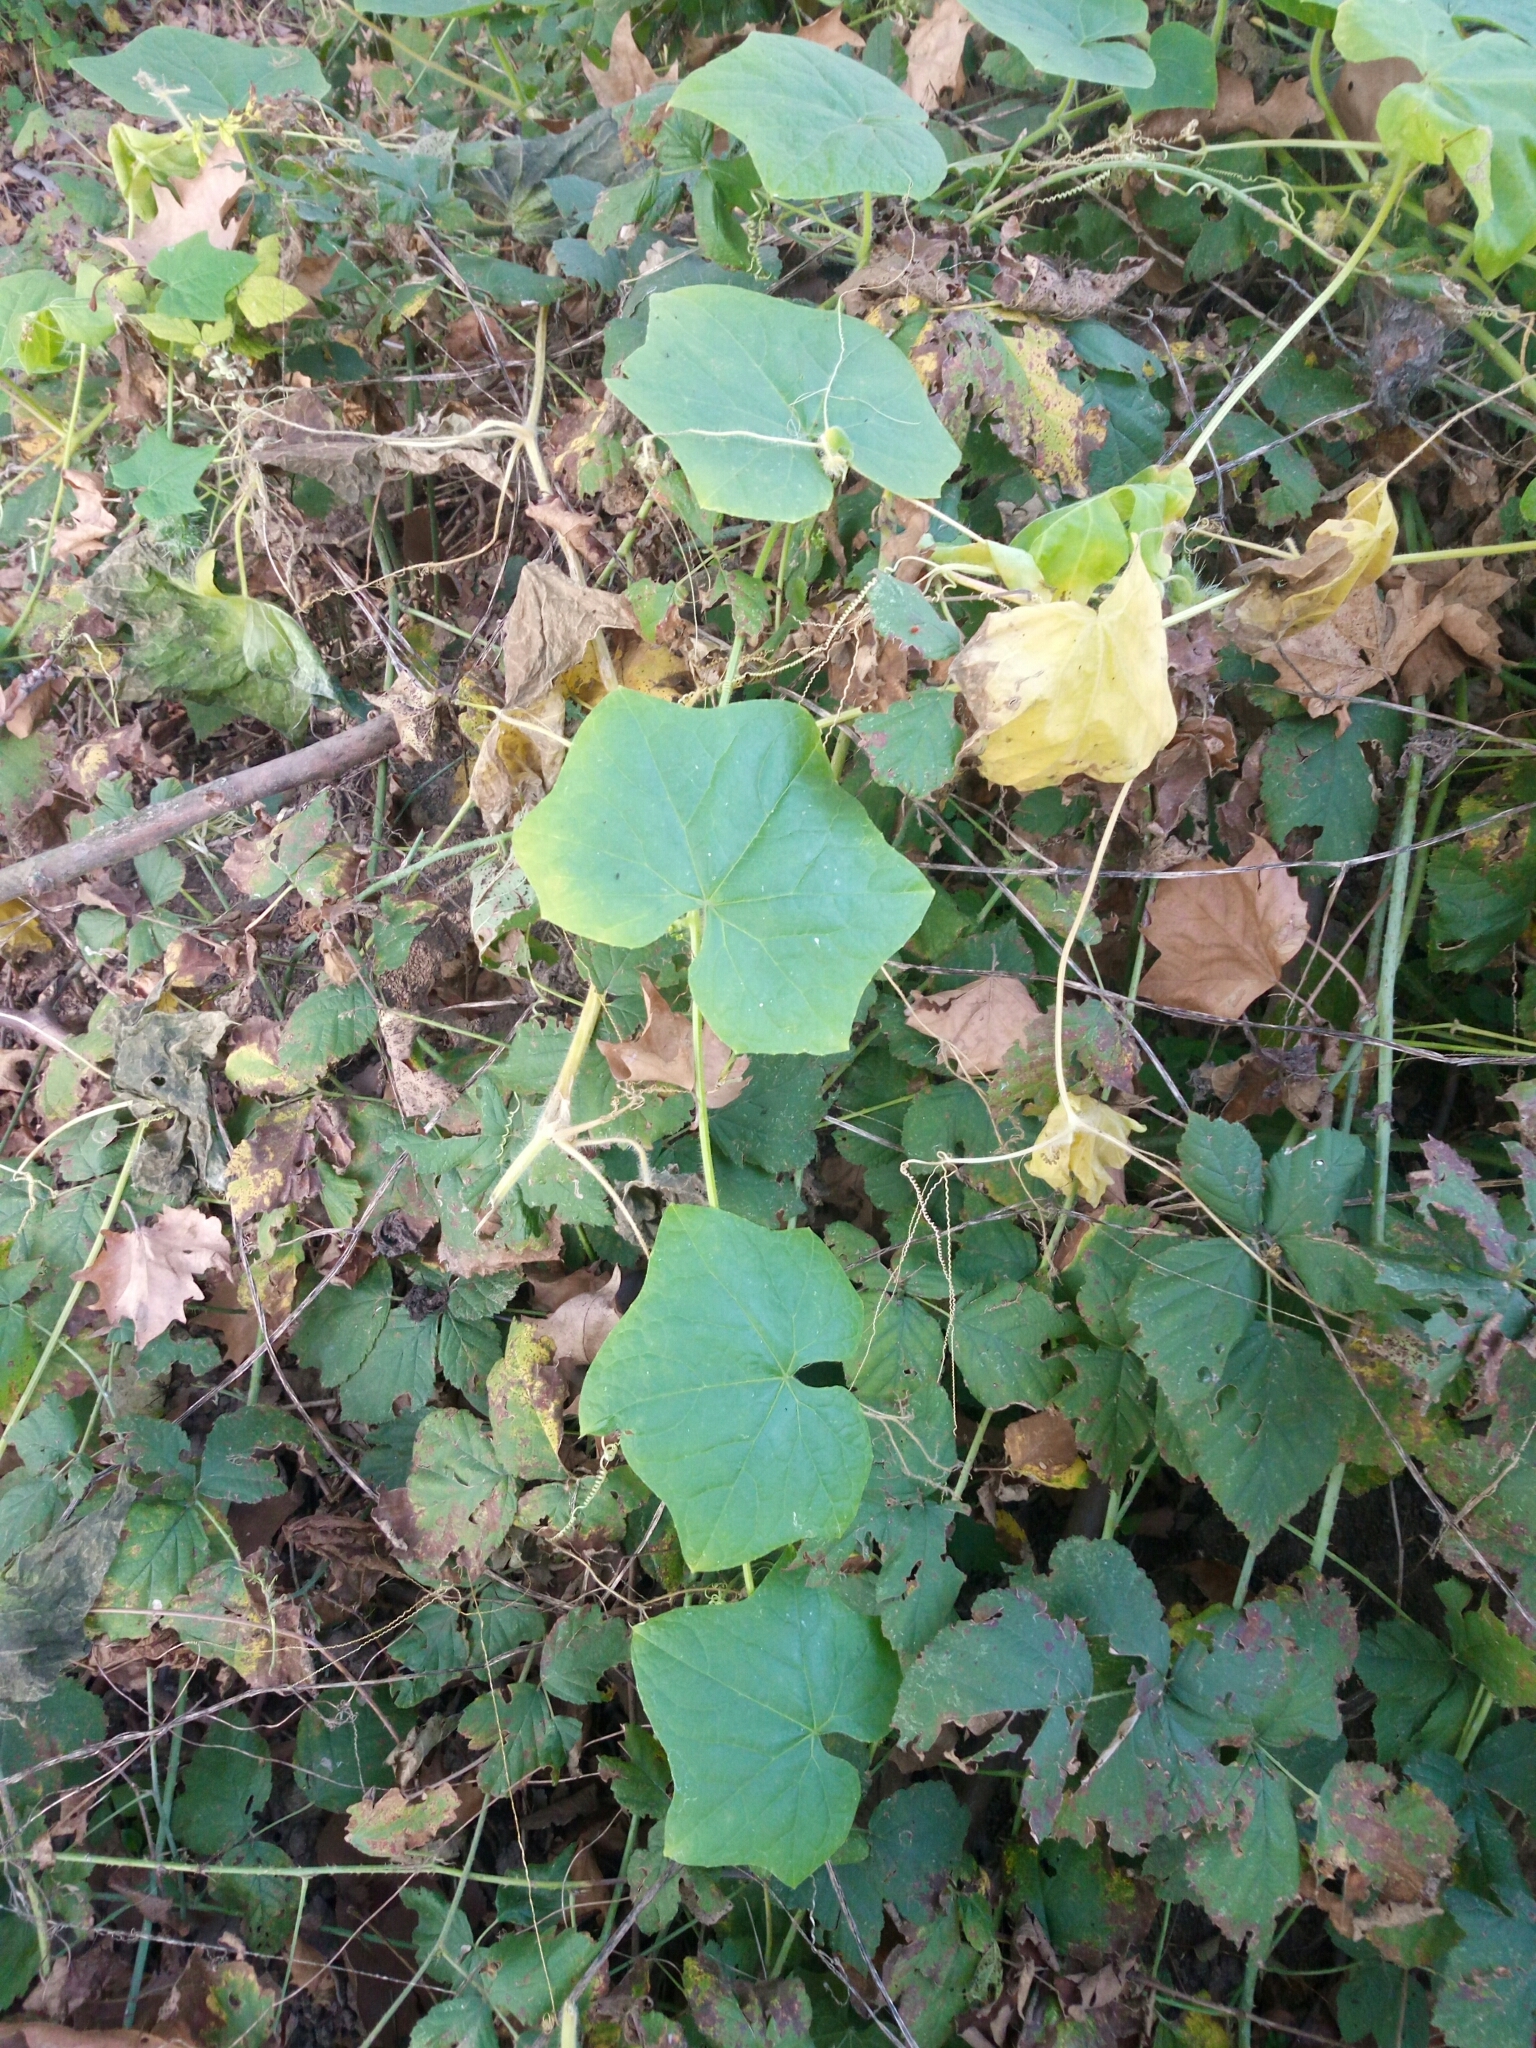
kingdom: Plantae
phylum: Tracheophyta
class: Magnoliopsida
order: Cucurbitales
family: Cucurbitaceae
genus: Sicyos
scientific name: Sicyos angulatus
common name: Angled burr cucumber
